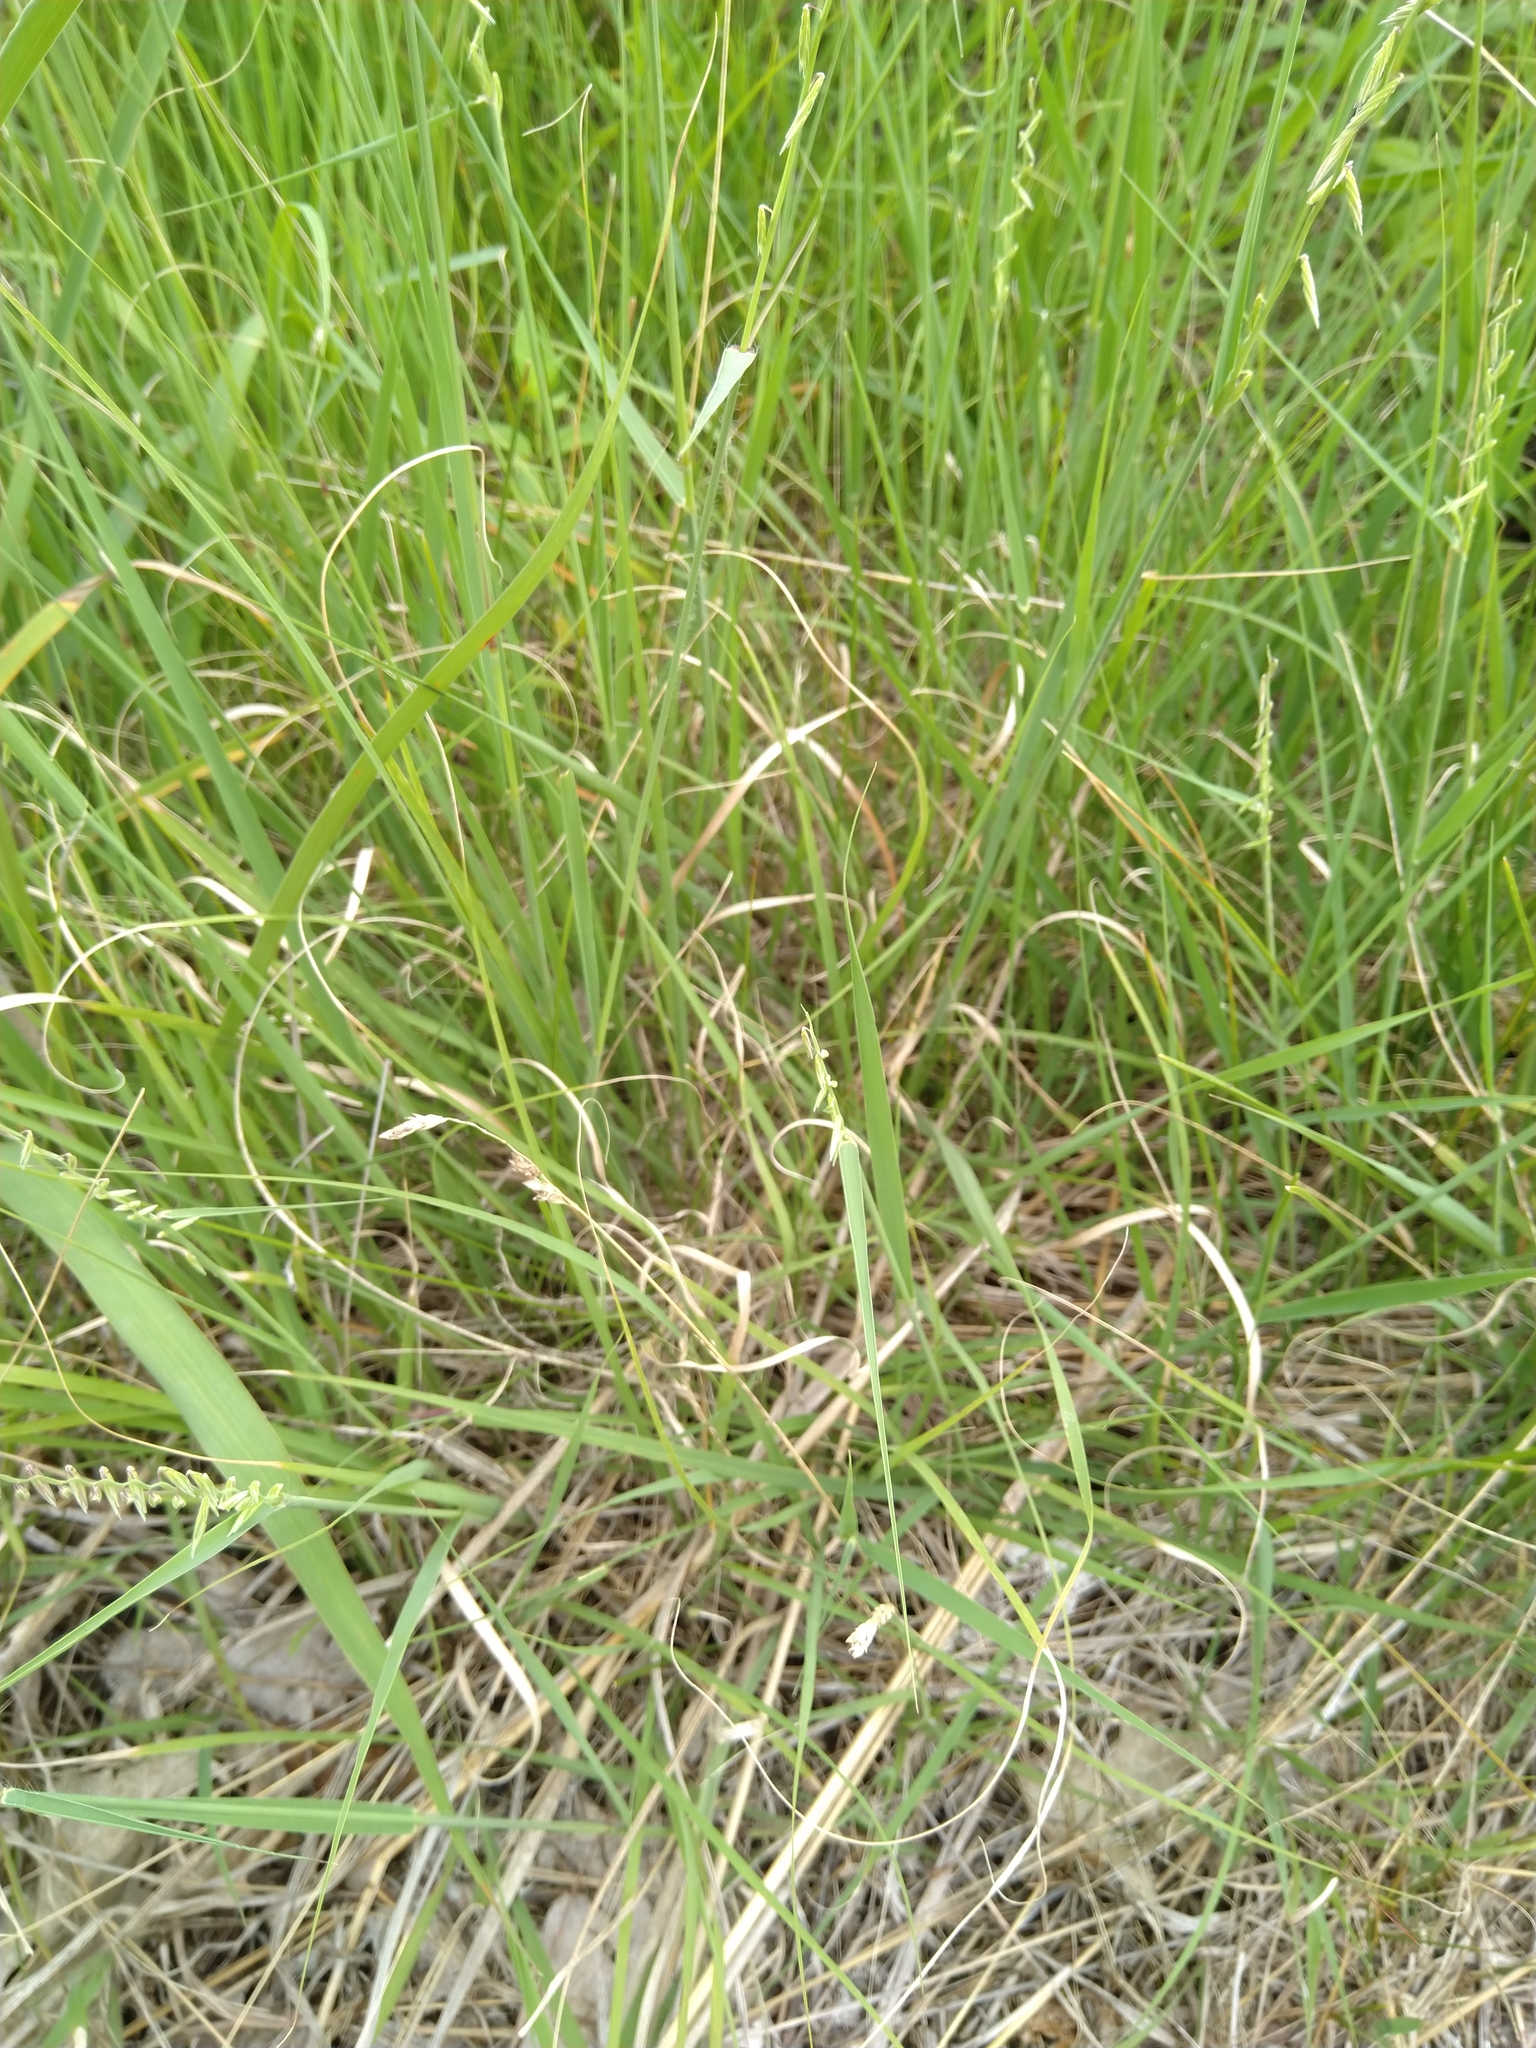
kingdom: Plantae
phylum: Tracheophyta
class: Liliopsida
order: Poales
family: Poaceae
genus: Bouteloua
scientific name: Bouteloua curtipendula
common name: Side-oats grama
